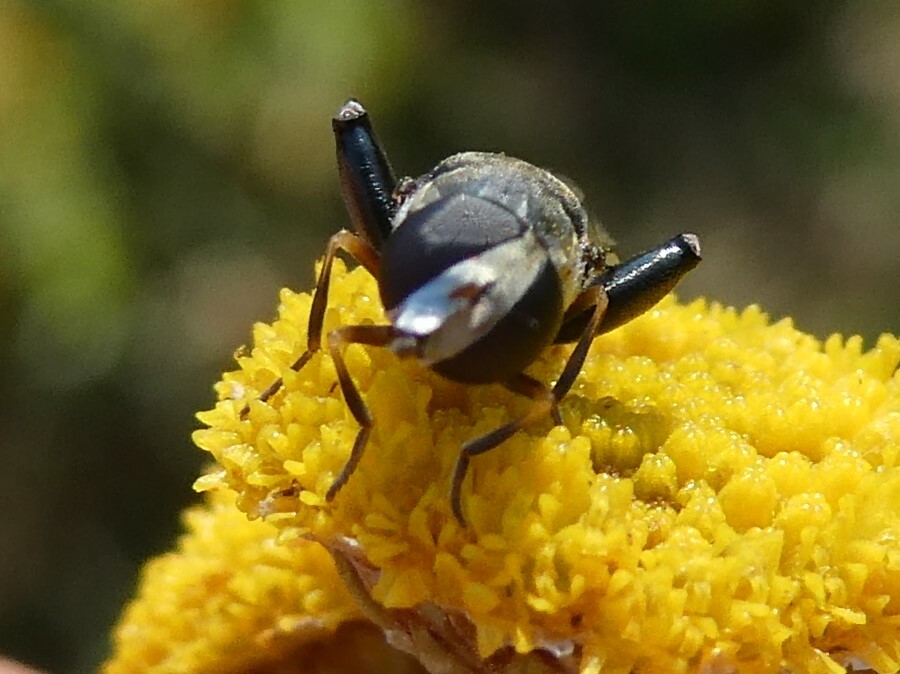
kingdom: Animalia
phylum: Arthropoda
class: Insecta
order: Diptera
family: Syrphidae
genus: Syritta
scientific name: Syritta pipiens
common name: Hover fly
